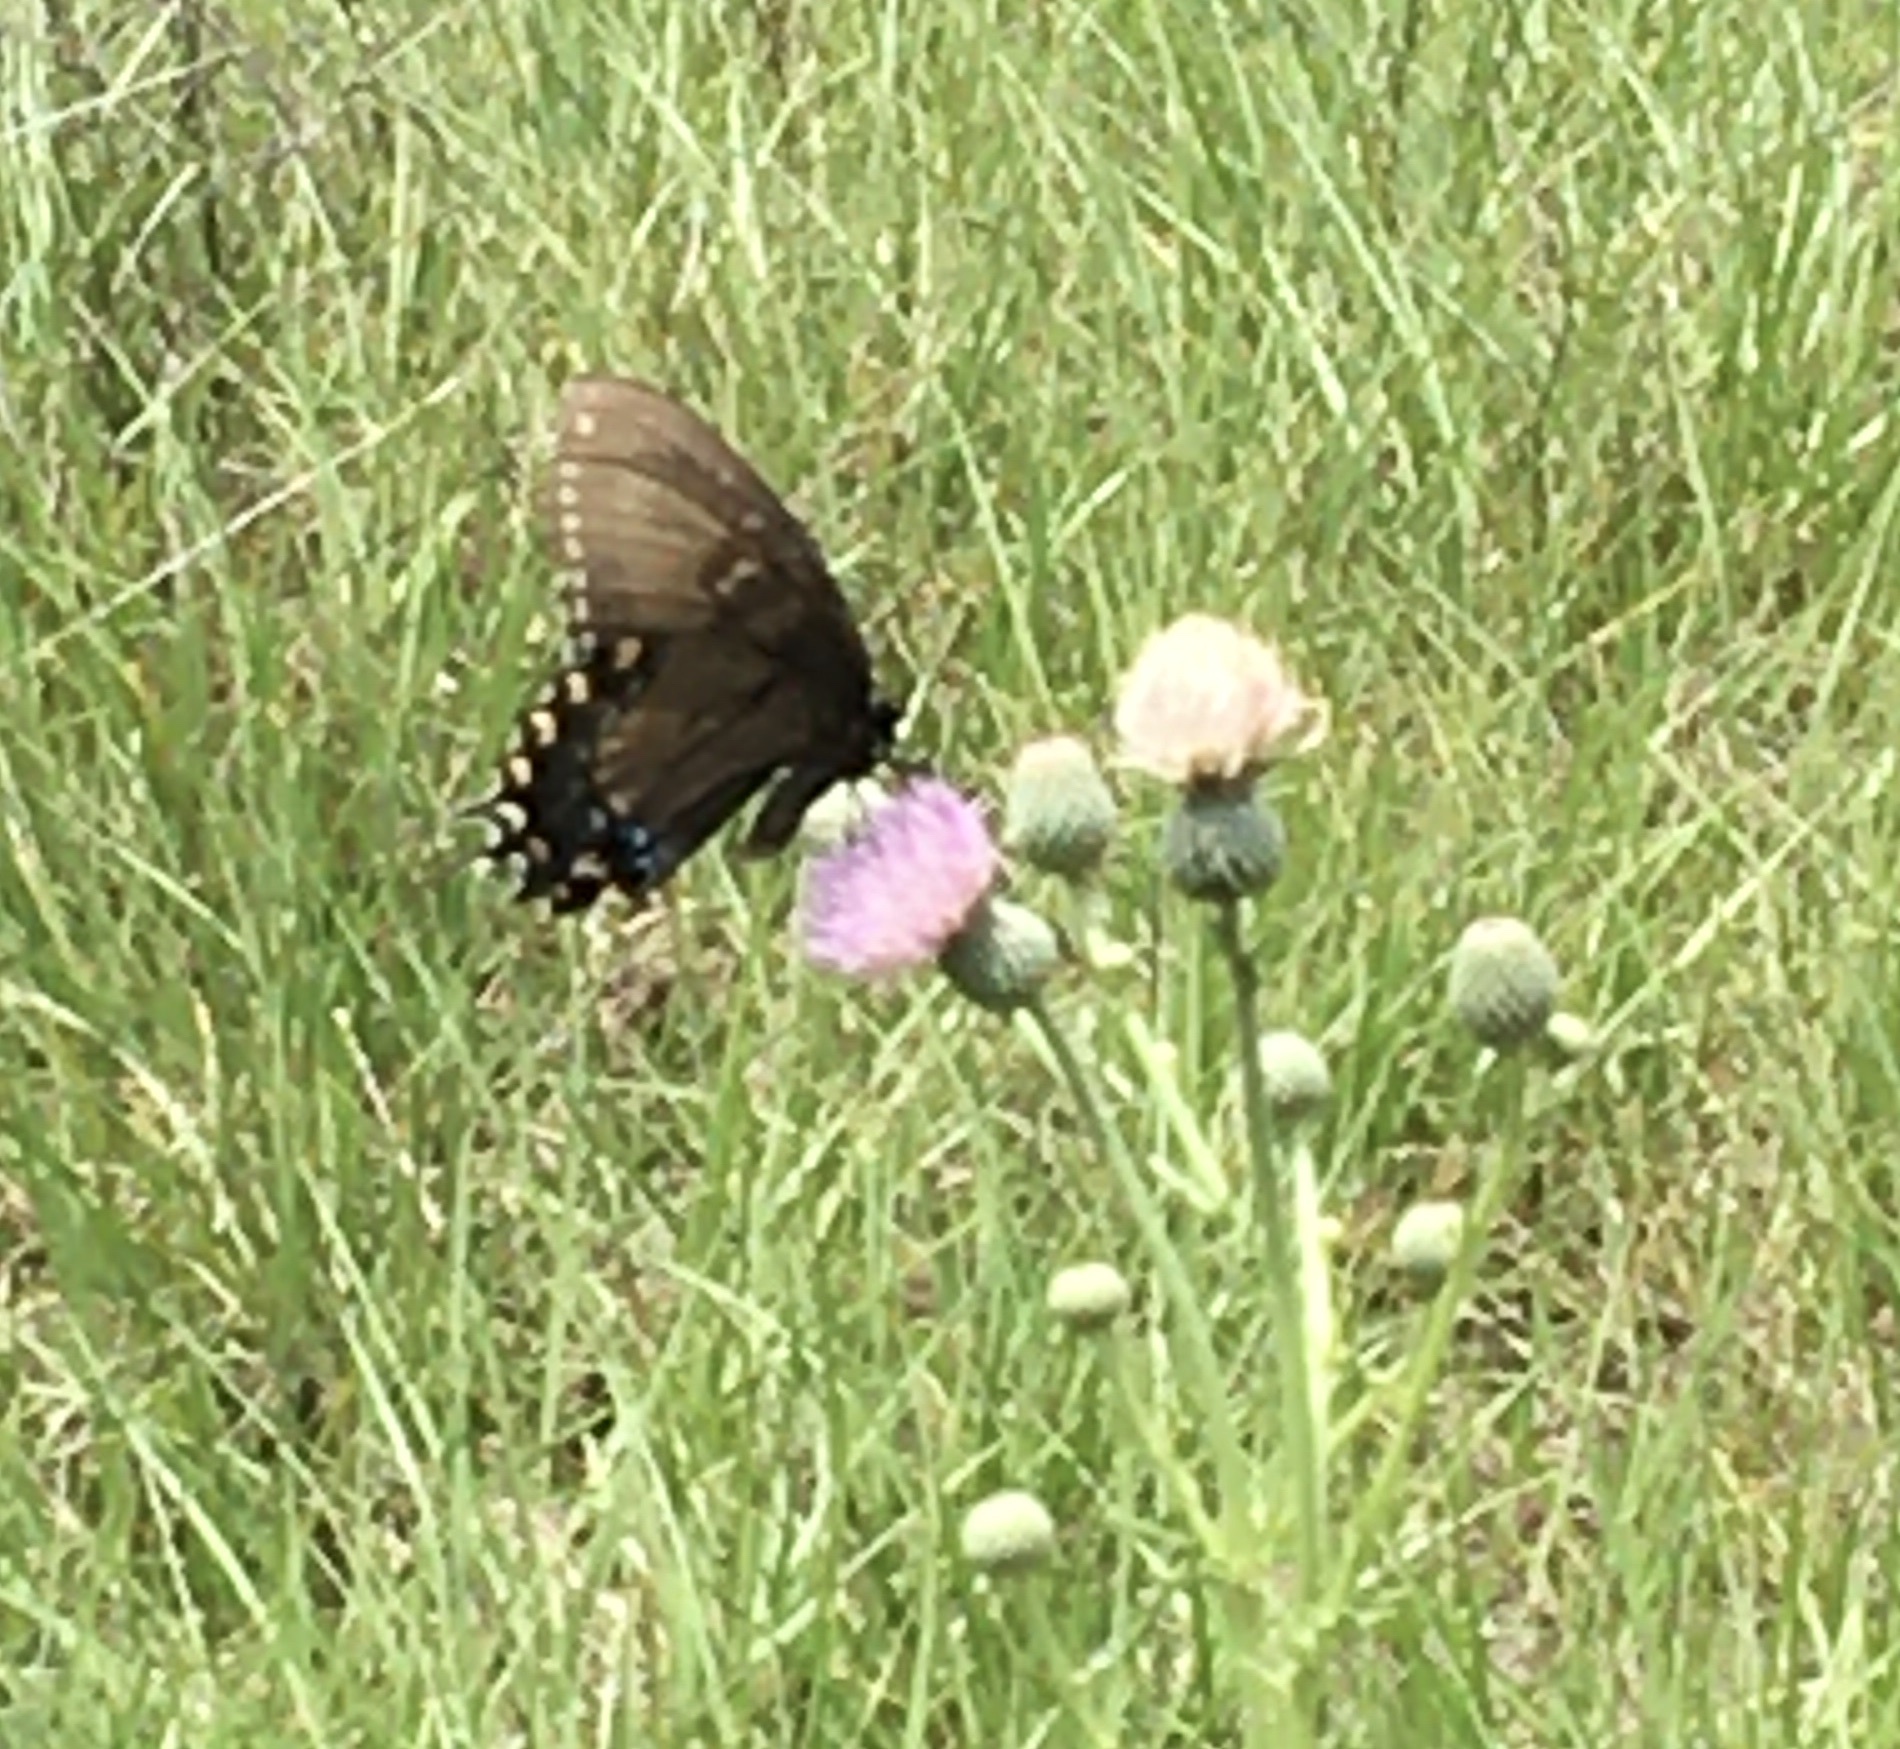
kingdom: Animalia
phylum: Arthropoda
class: Insecta
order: Lepidoptera
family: Papilionidae
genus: Papilio
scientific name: Papilio glaucus
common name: Tiger swallowtail
